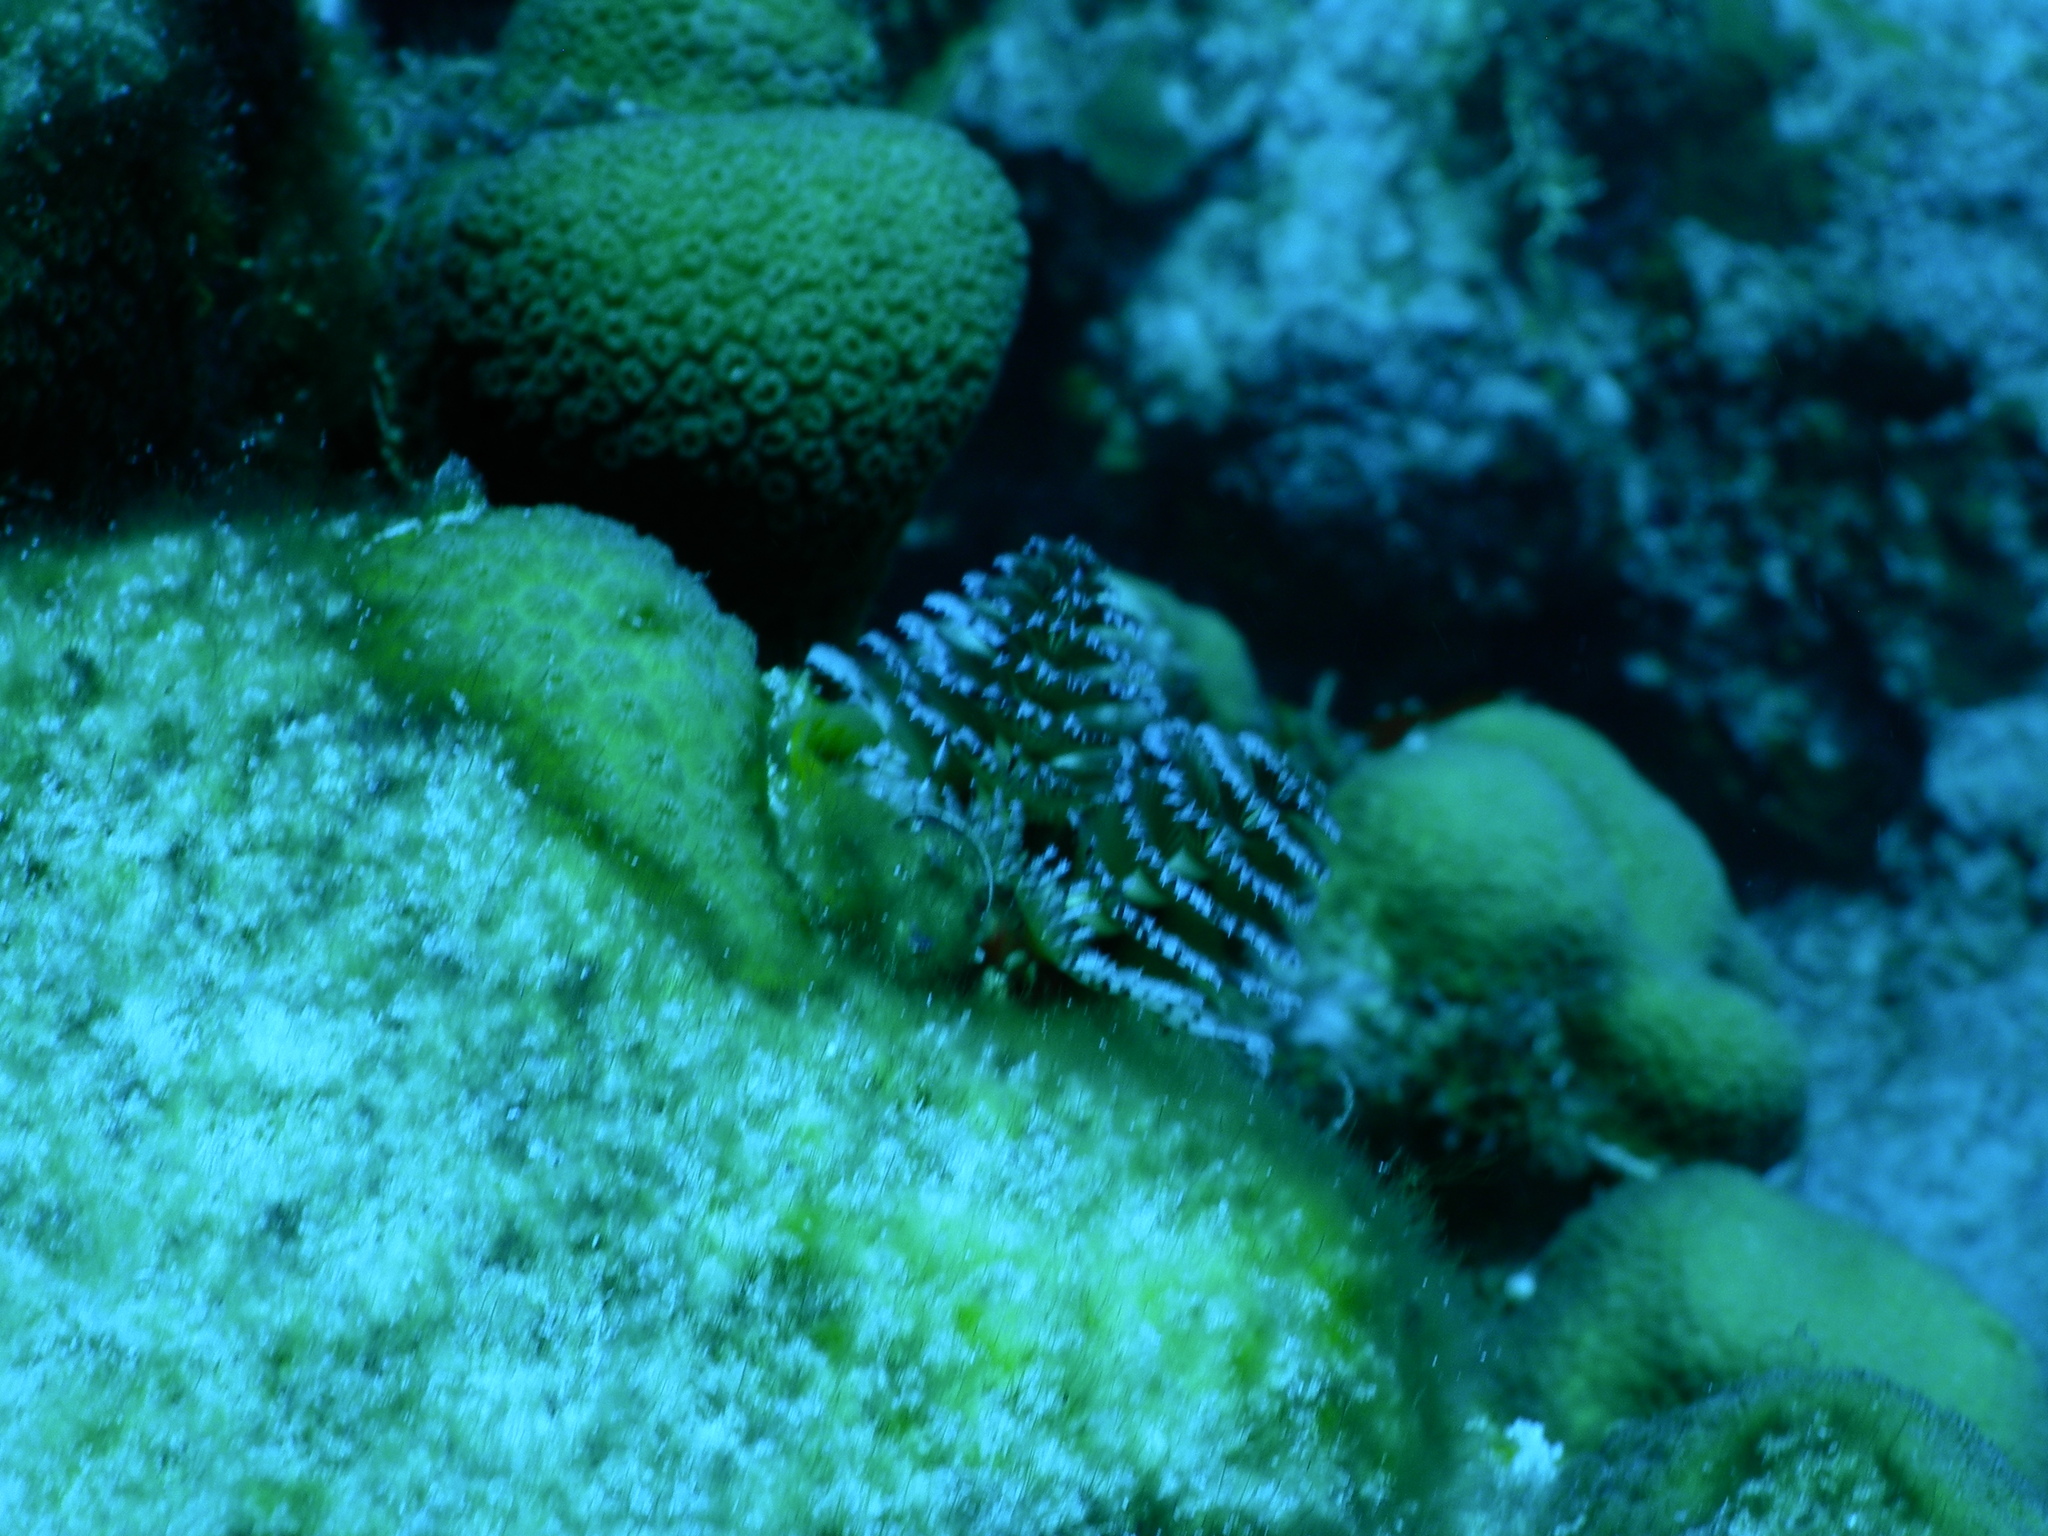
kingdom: Animalia
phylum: Annelida
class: Polychaeta
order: Sabellida
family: Serpulidae
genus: Spirobranchus
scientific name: Spirobranchus giganteus
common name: Christmas tree worm
